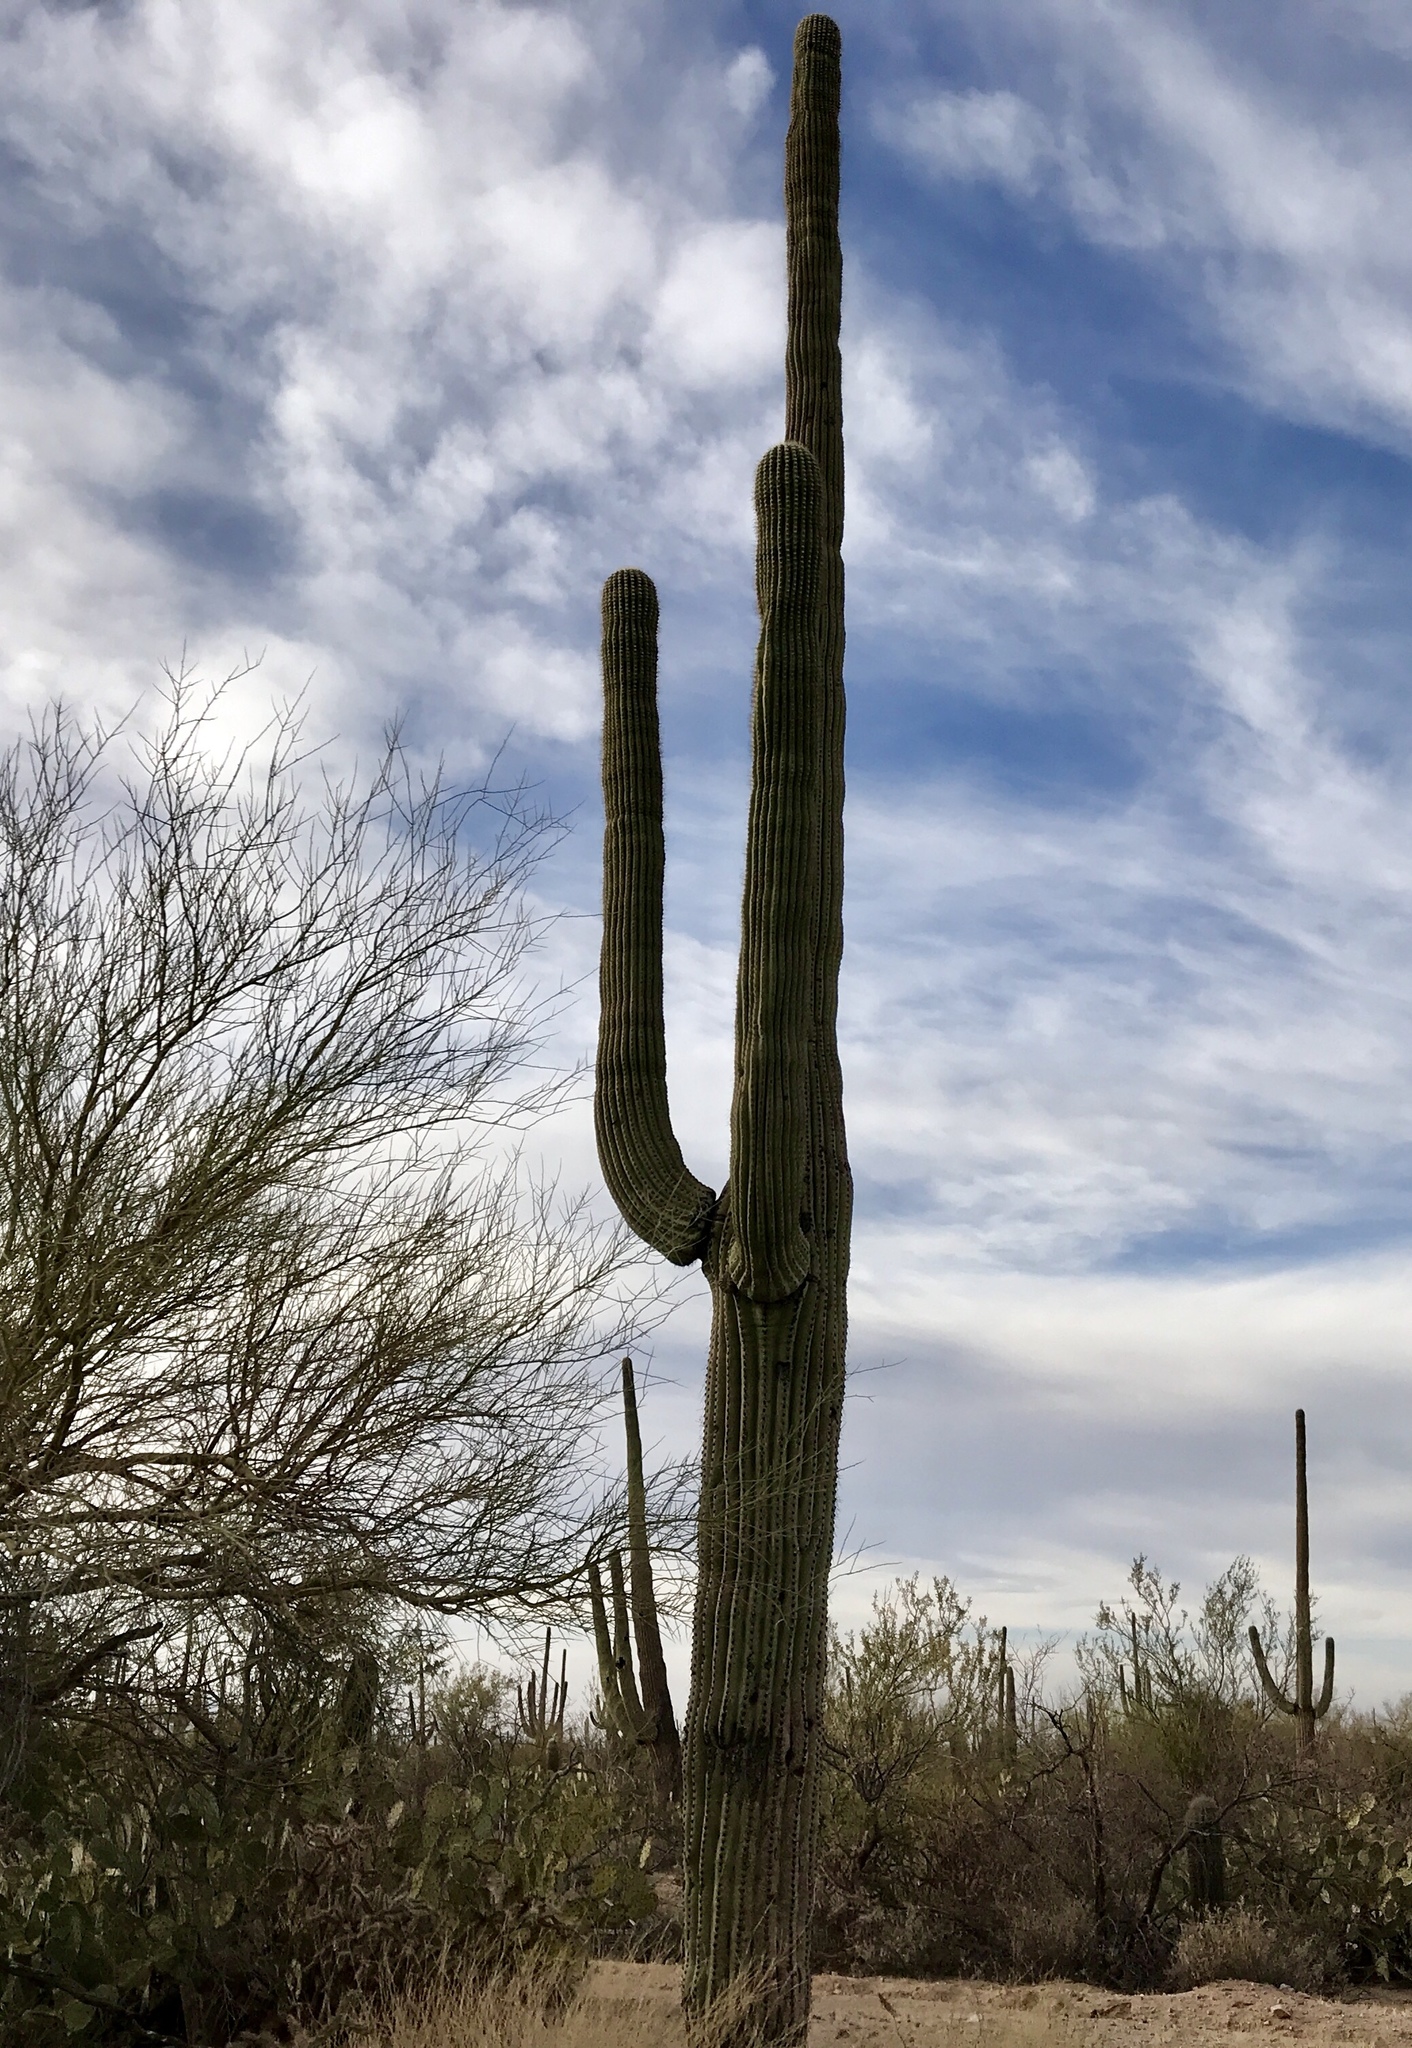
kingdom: Plantae
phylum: Tracheophyta
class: Magnoliopsida
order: Caryophyllales
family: Cactaceae
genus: Carnegiea
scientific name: Carnegiea gigantea
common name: Saguaro
